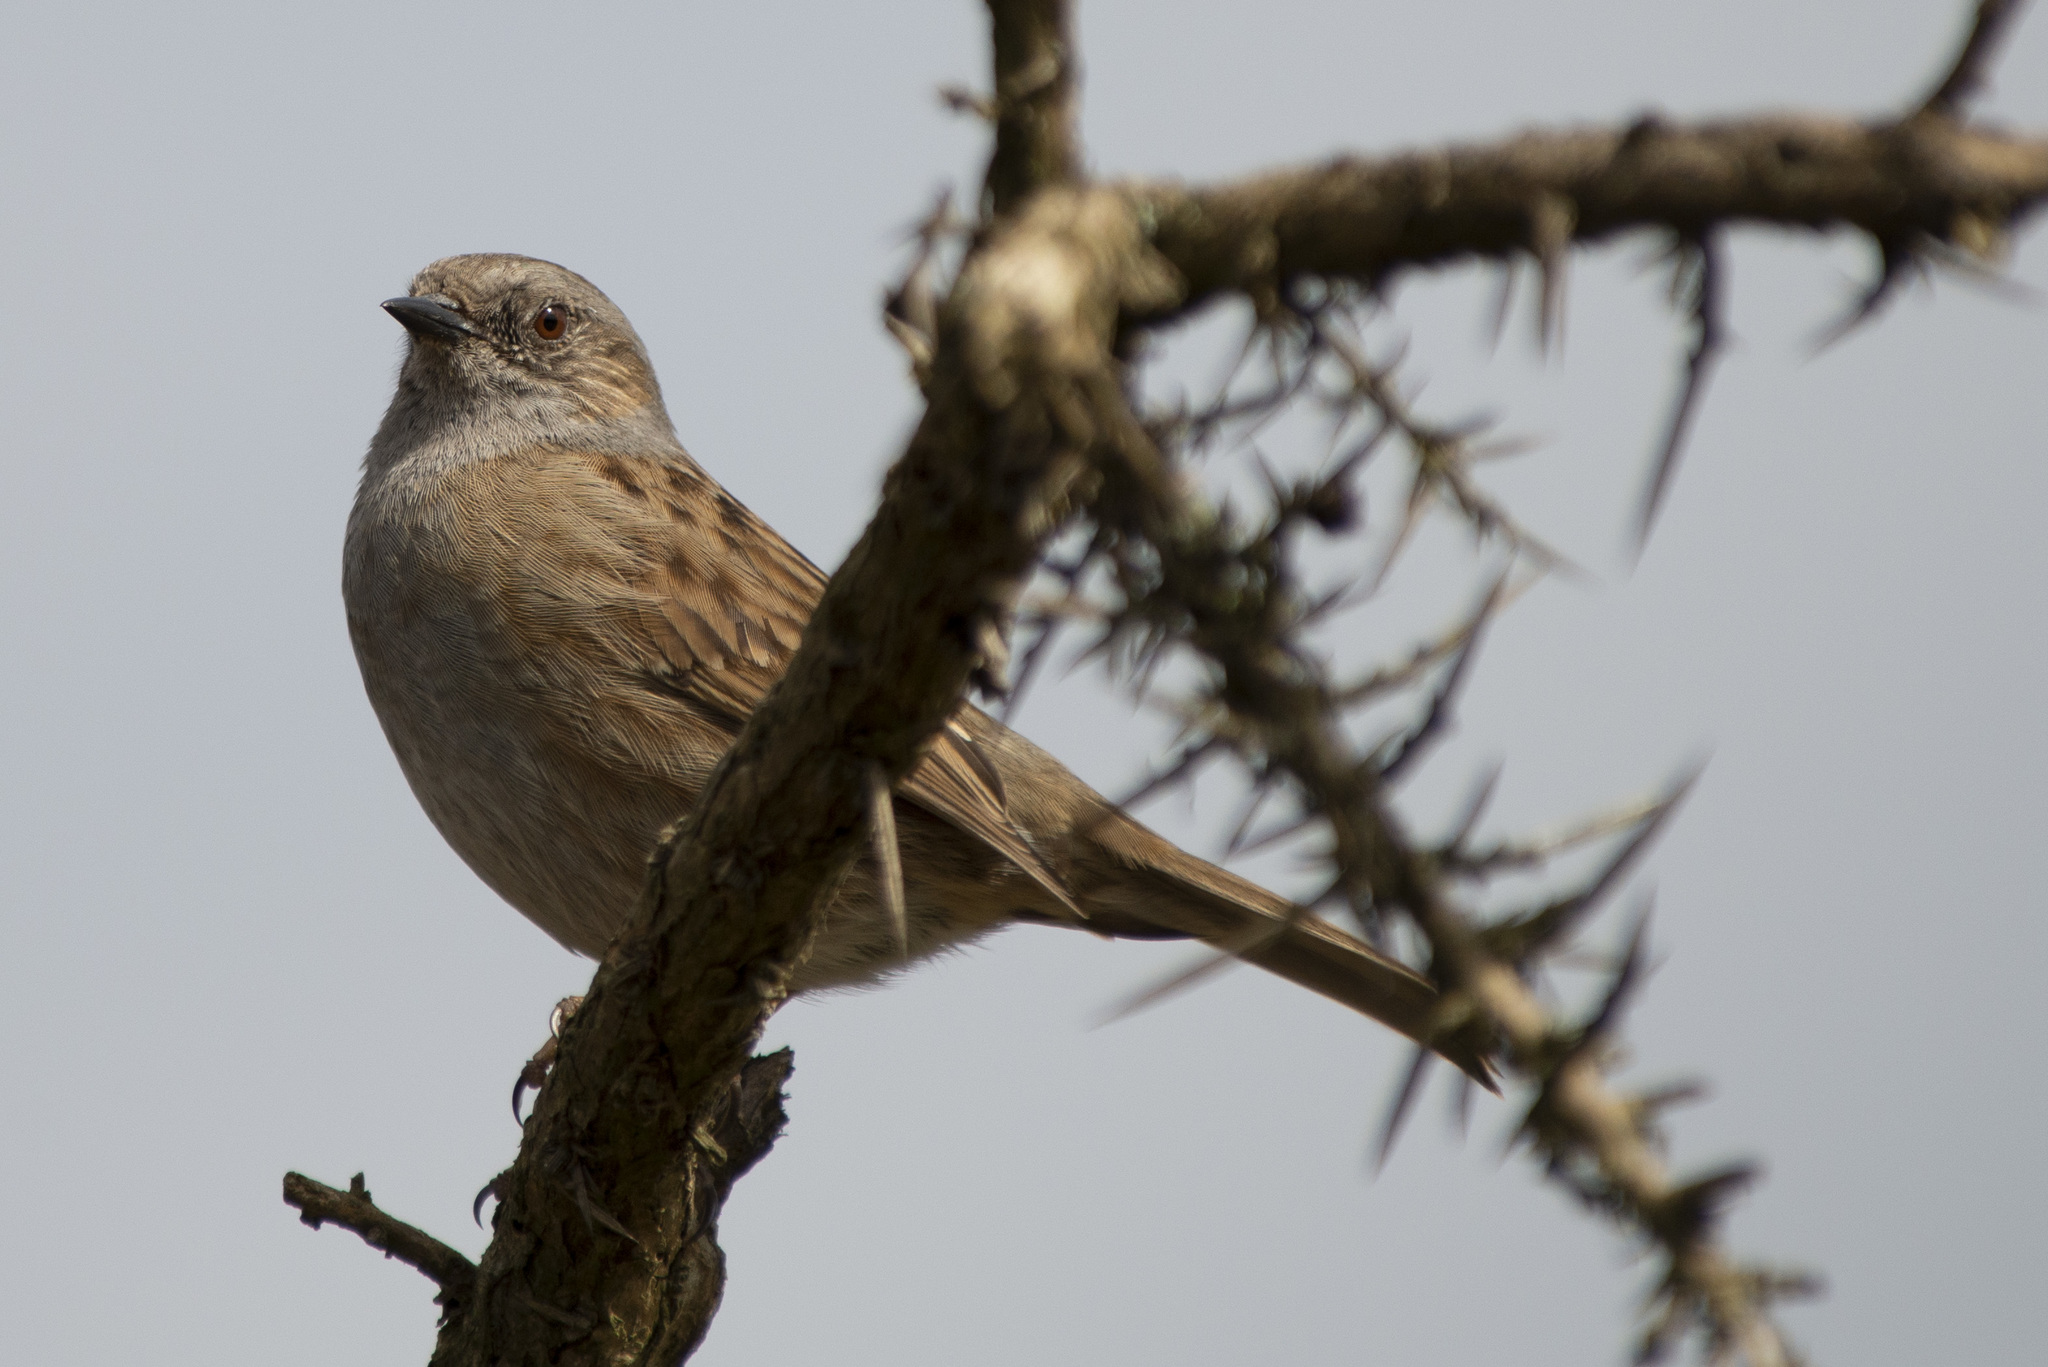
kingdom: Animalia
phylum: Chordata
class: Aves
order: Passeriformes
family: Prunellidae
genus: Prunella
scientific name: Prunella modularis
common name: Dunnock
